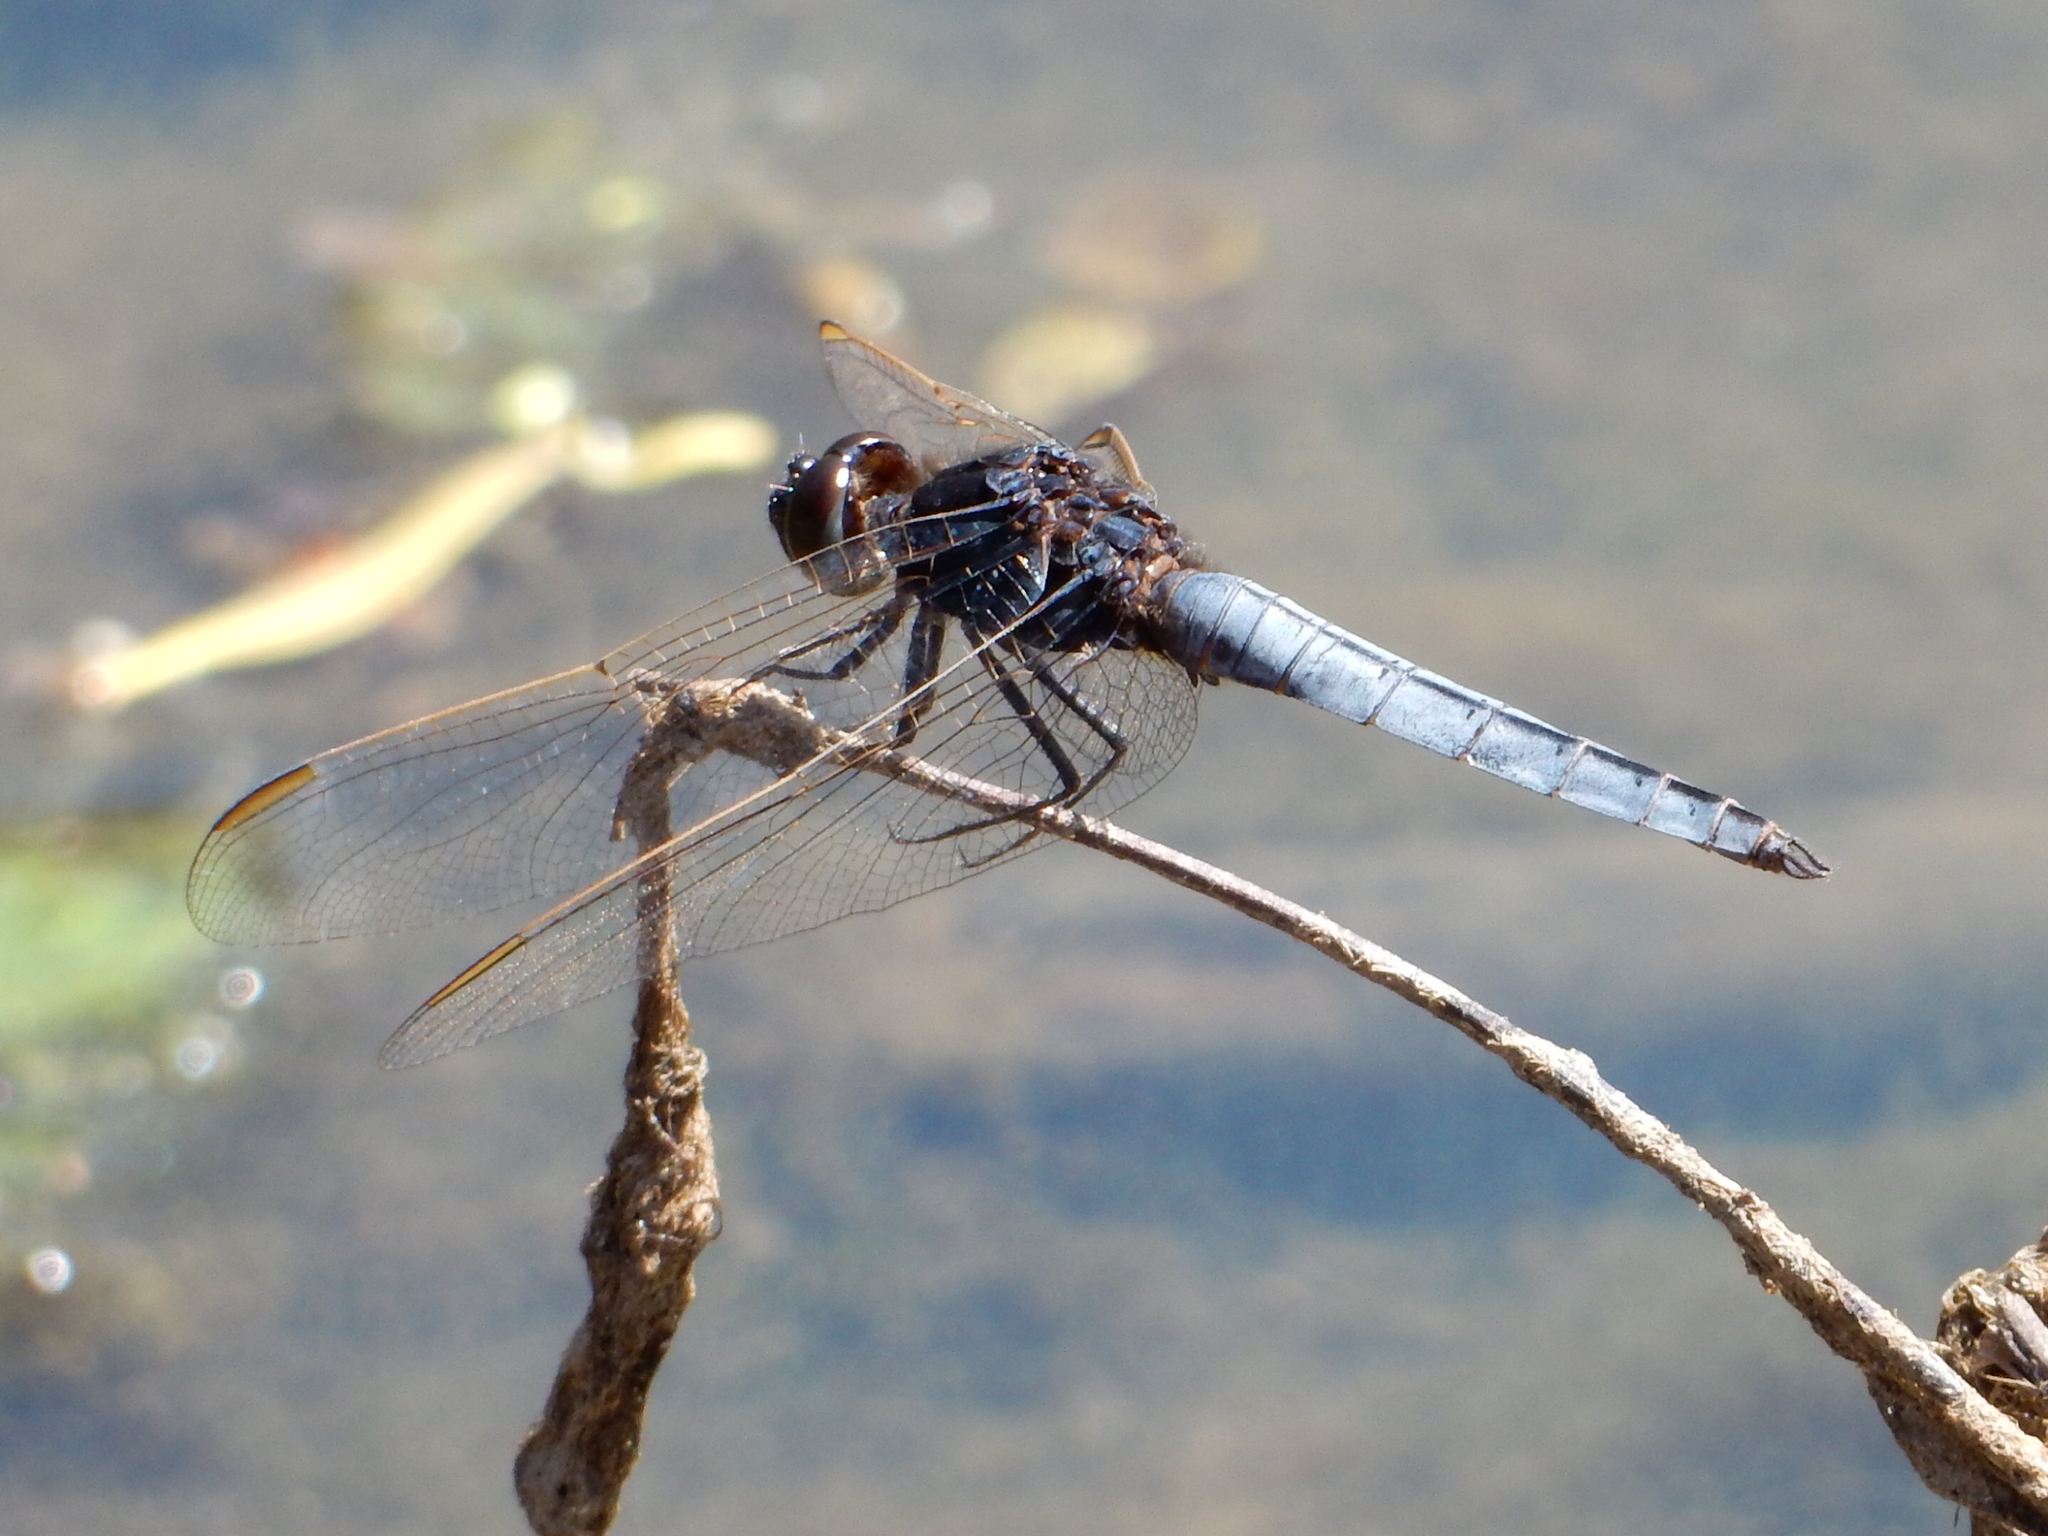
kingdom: Animalia
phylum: Arthropoda
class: Insecta
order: Odonata
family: Libellulidae
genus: Crocothemis
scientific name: Crocothemis nigrifrons
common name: Black-headed skimmer
